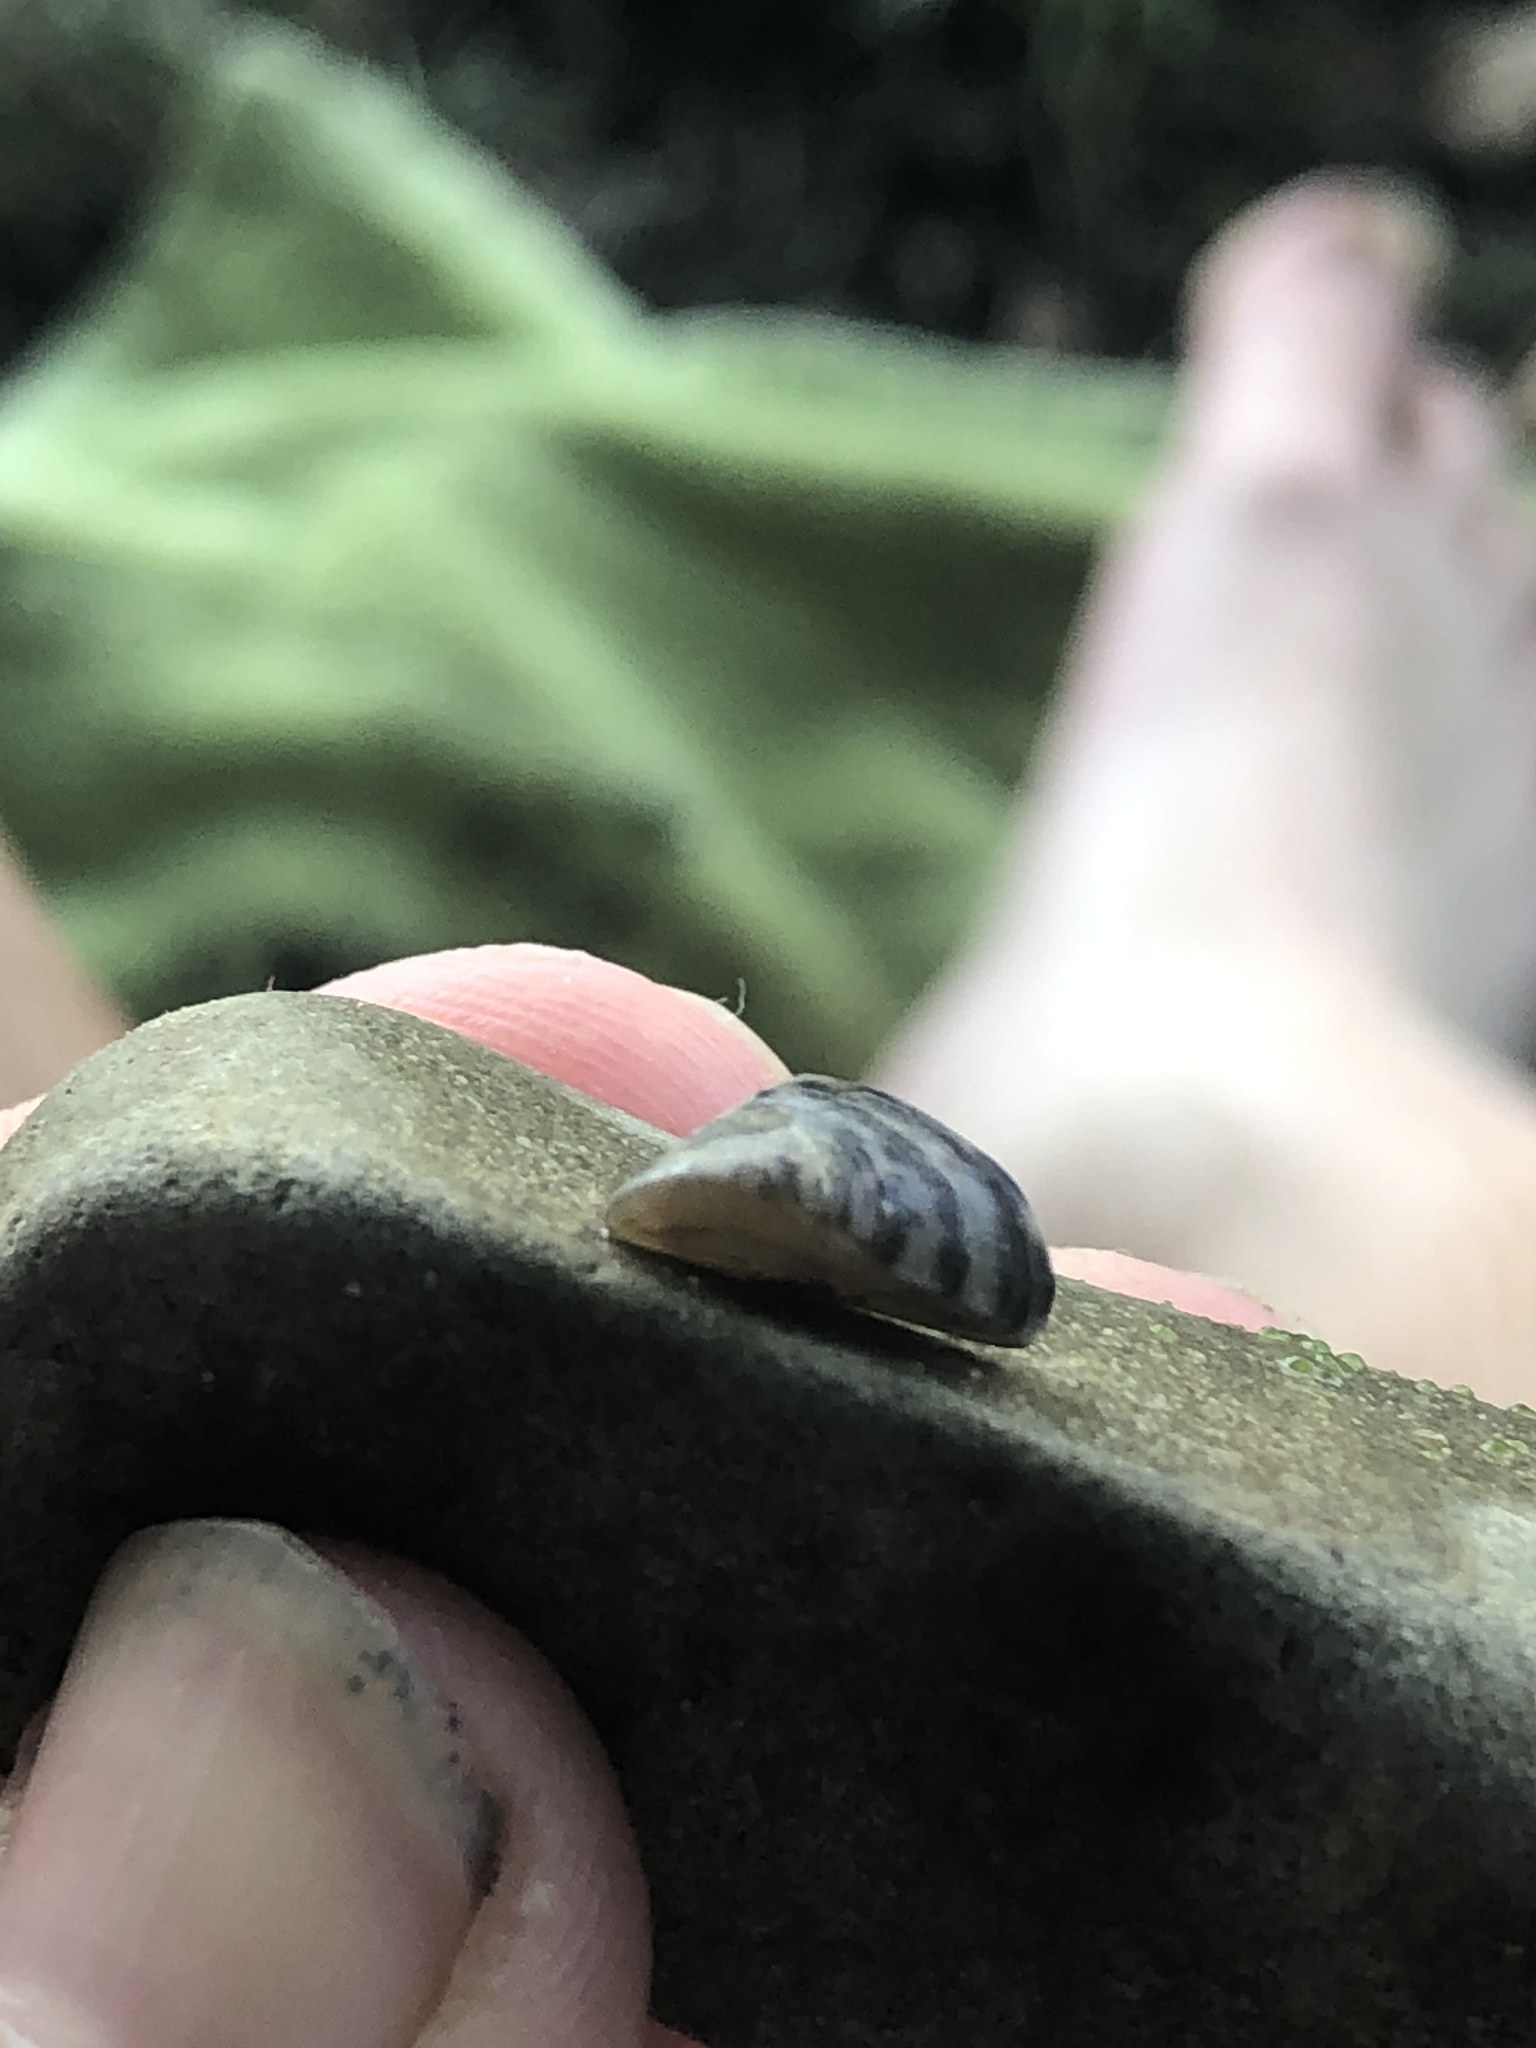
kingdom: Animalia
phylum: Mollusca
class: Bivalvia
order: Myida
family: Dreissenidae
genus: Dreissena
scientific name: Dreissena polymorpha
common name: Zebra mussel
